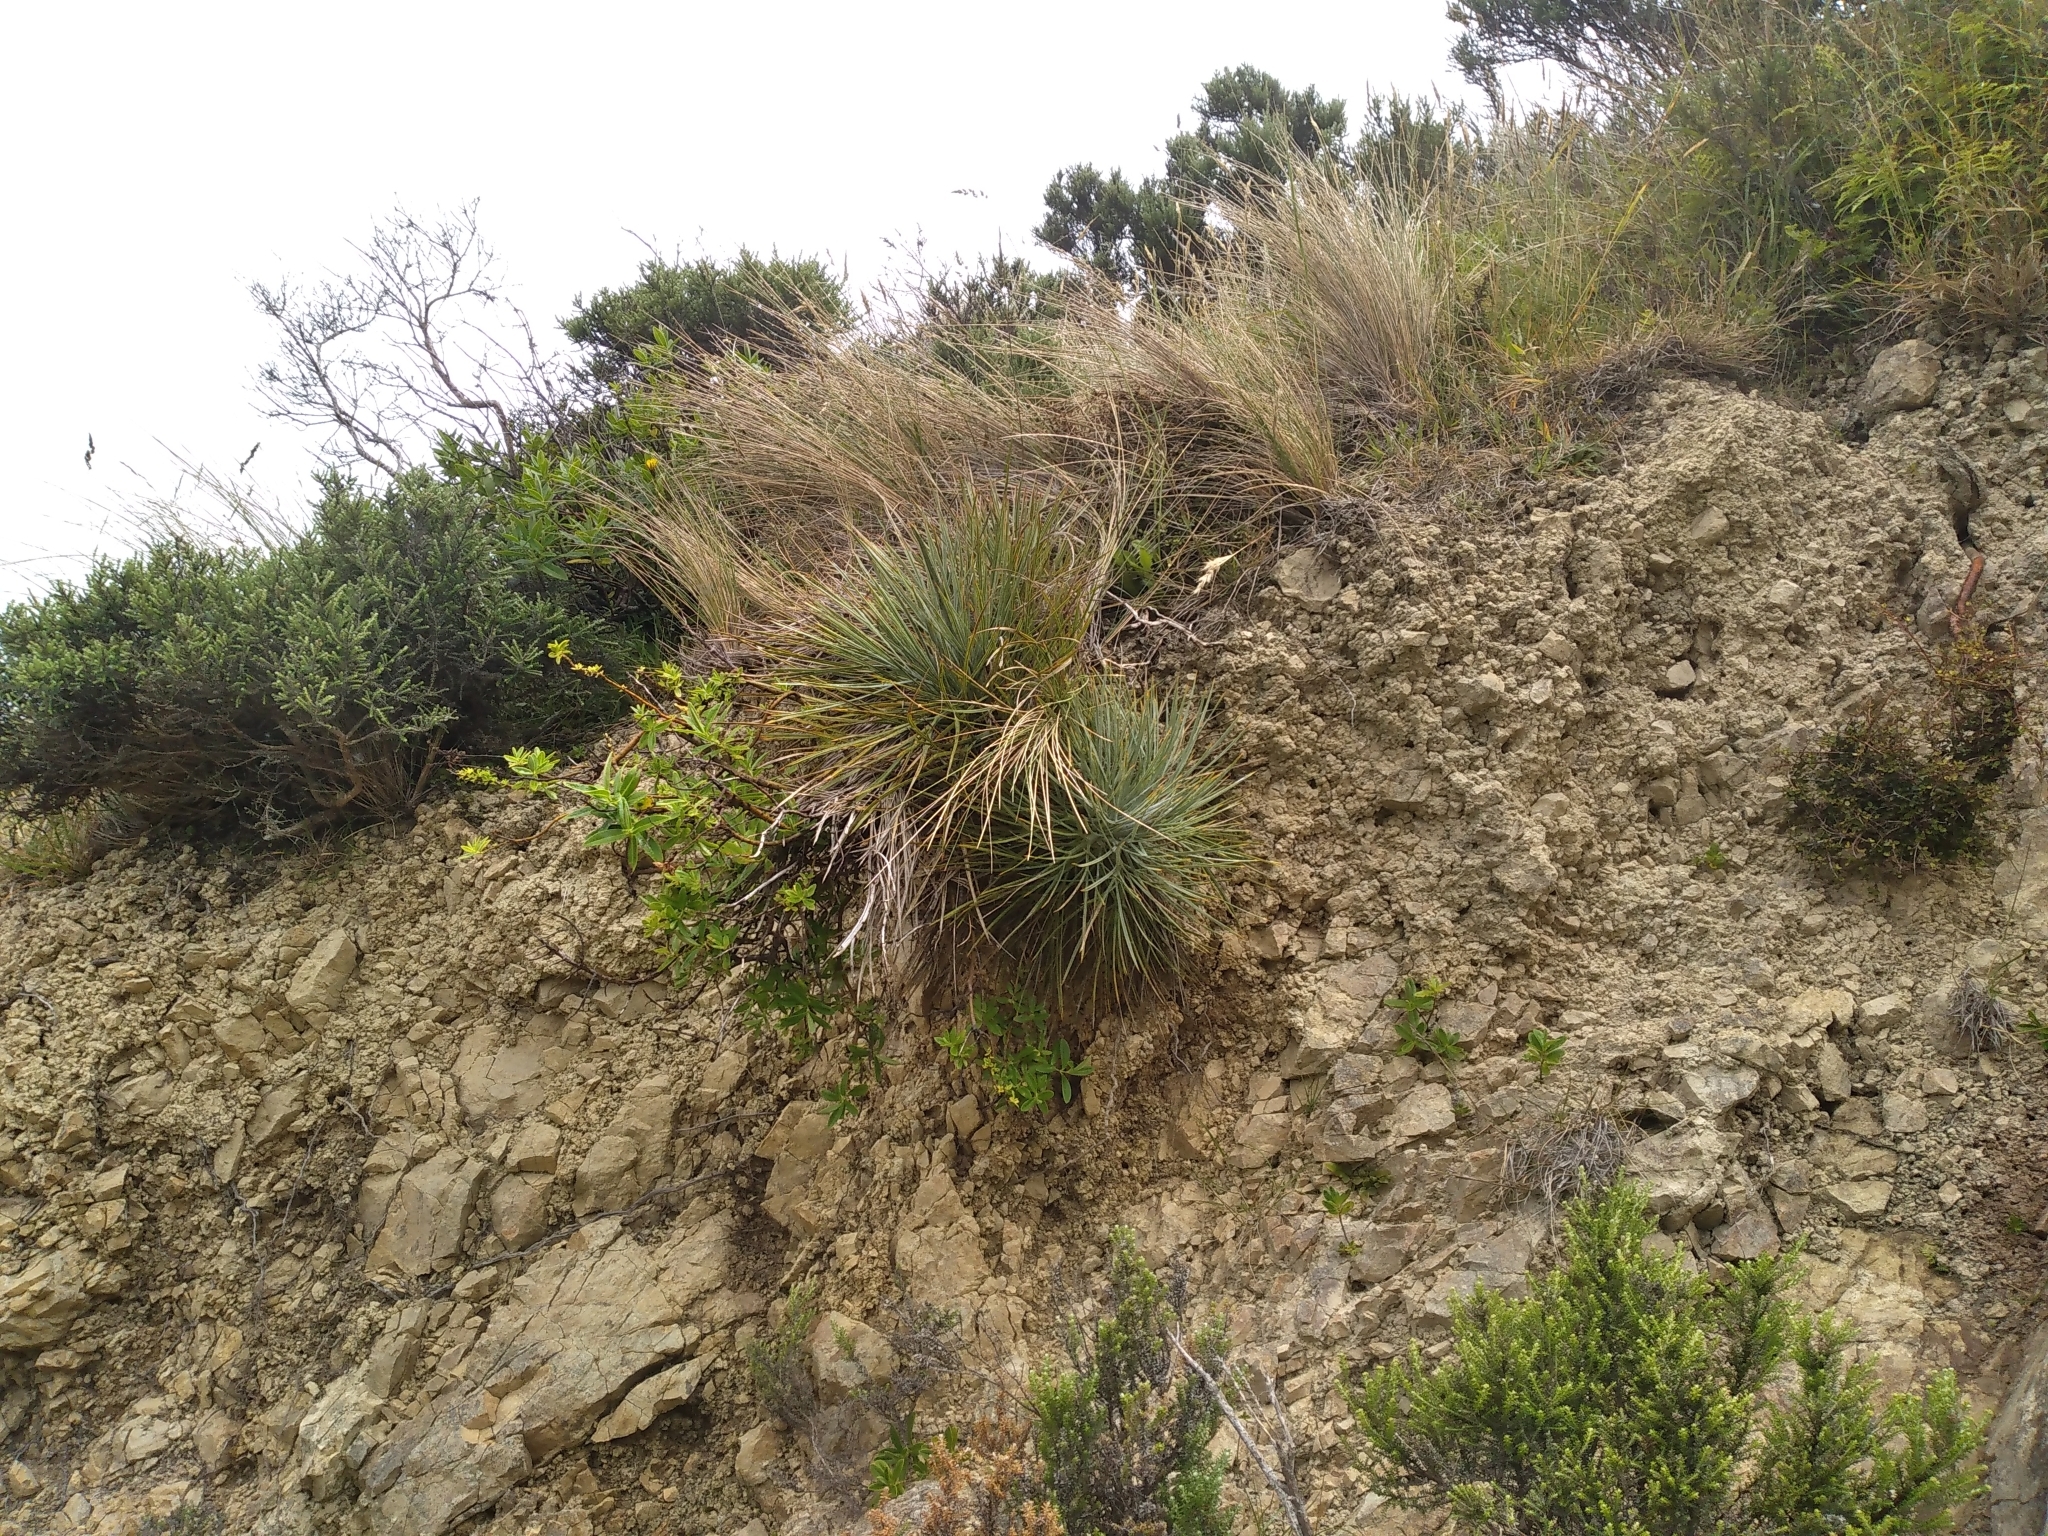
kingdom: Plantae
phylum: Tracheophyta
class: Magnoliopsida
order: Apiales
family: Apiaceae
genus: Aciphylla
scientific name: Aciphylla squarrosa
